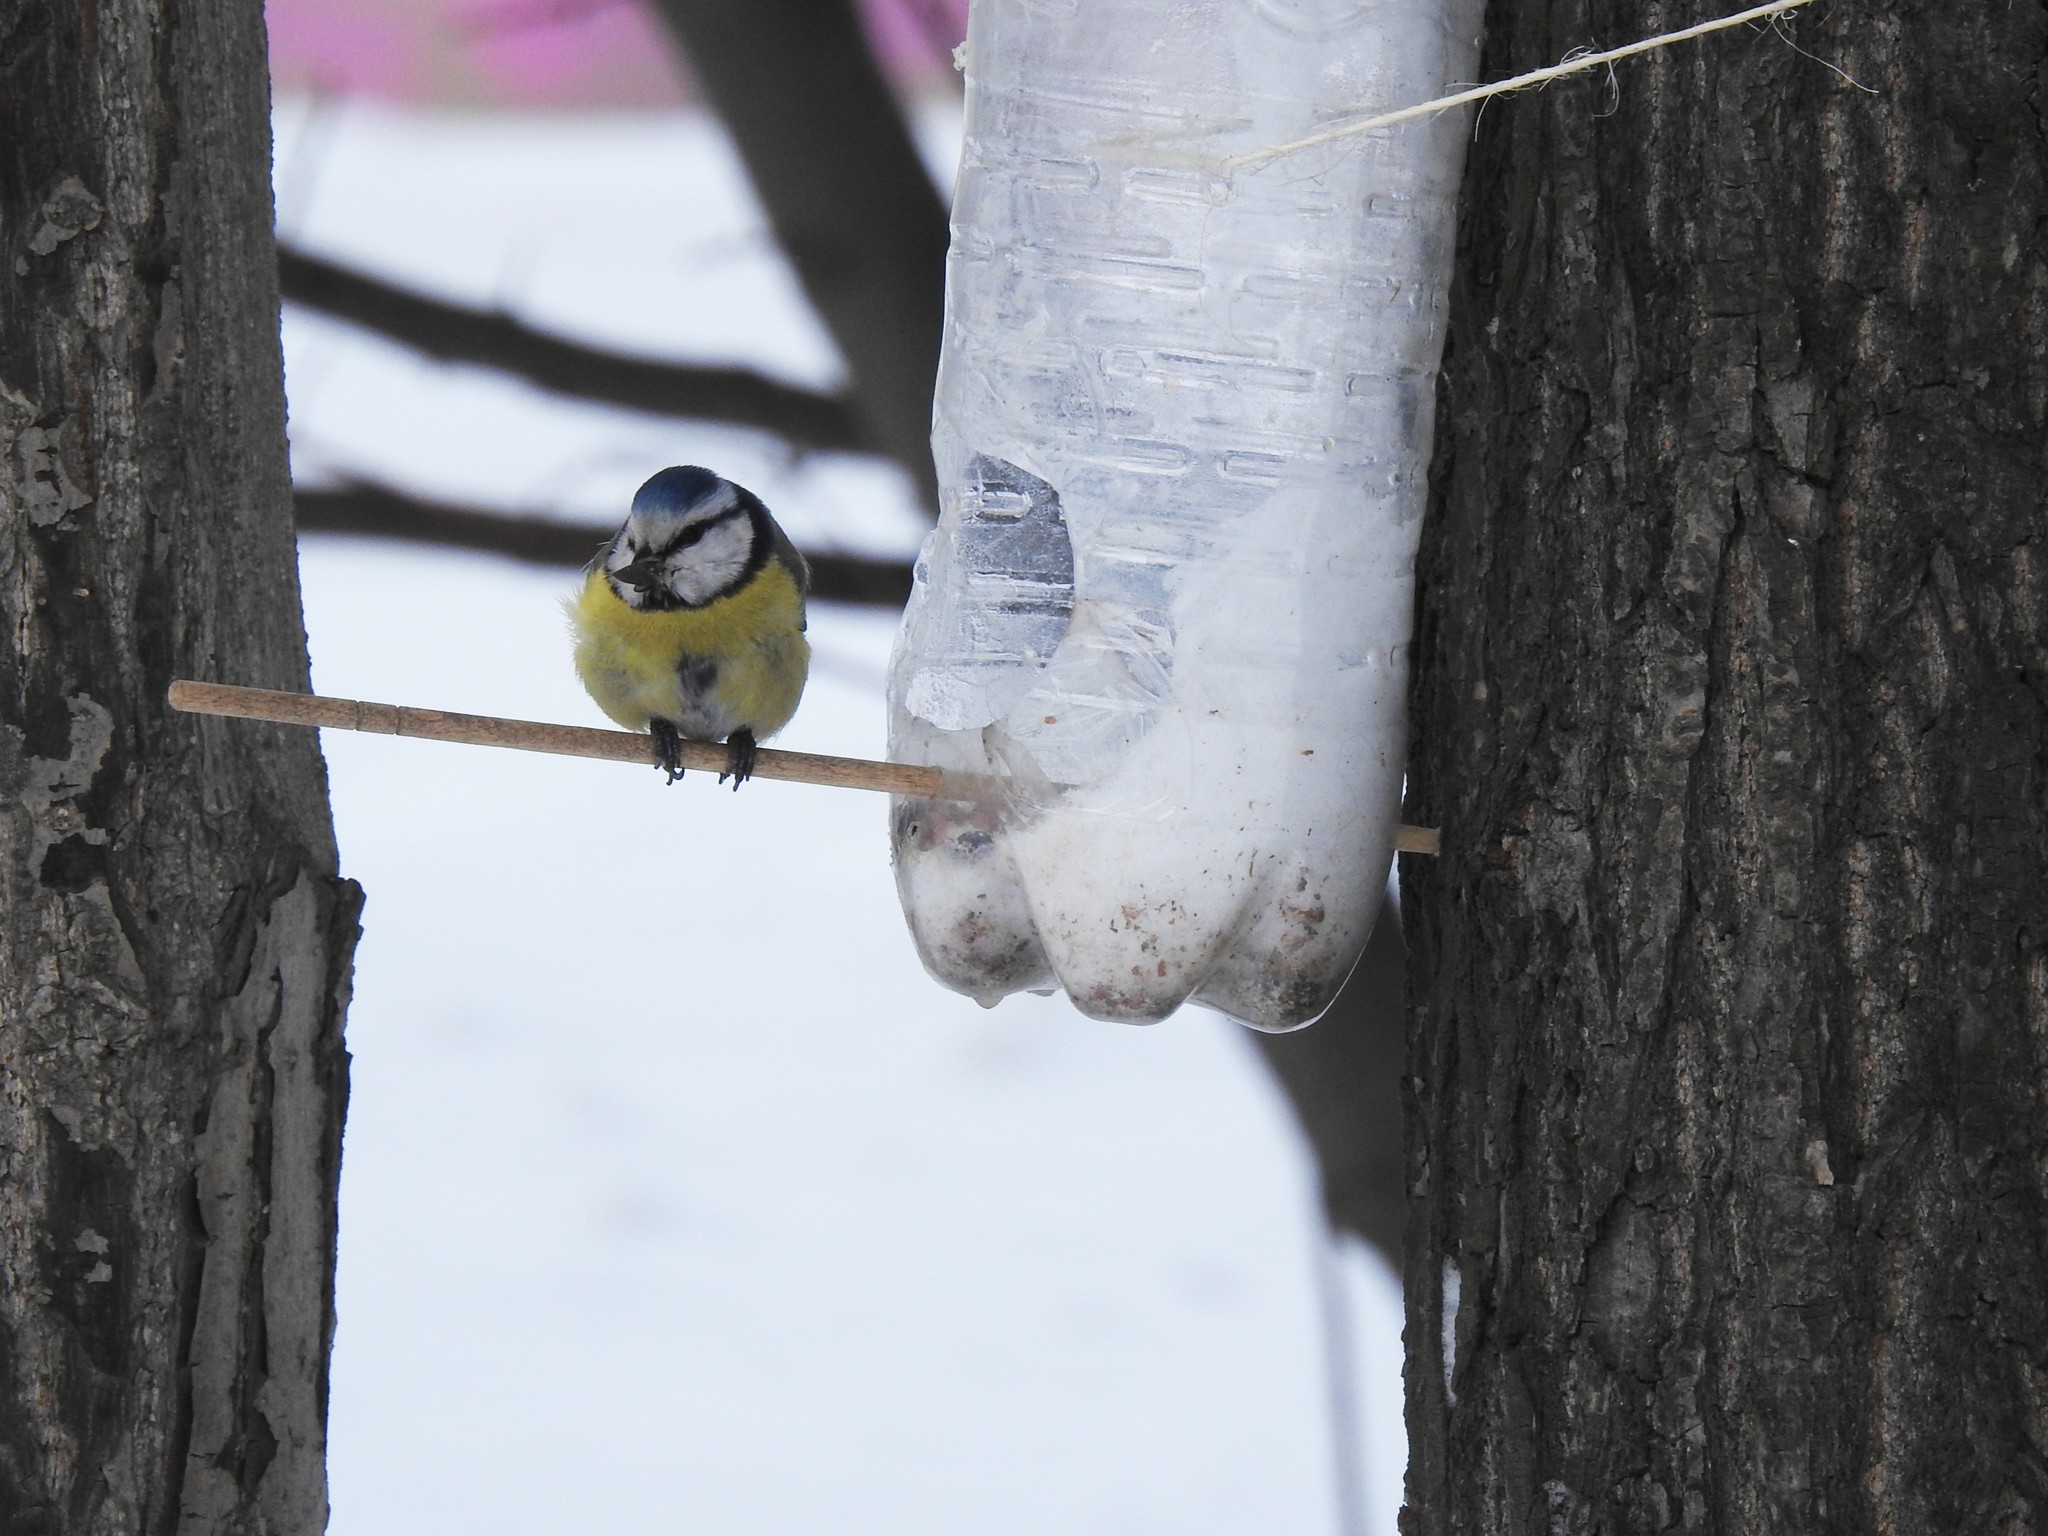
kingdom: Animalia
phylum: Chordata
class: Aves
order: Passeriformes
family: Paridae
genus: Cyanistes
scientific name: Cyanistes caeruleus
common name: Eurasian blue tit
